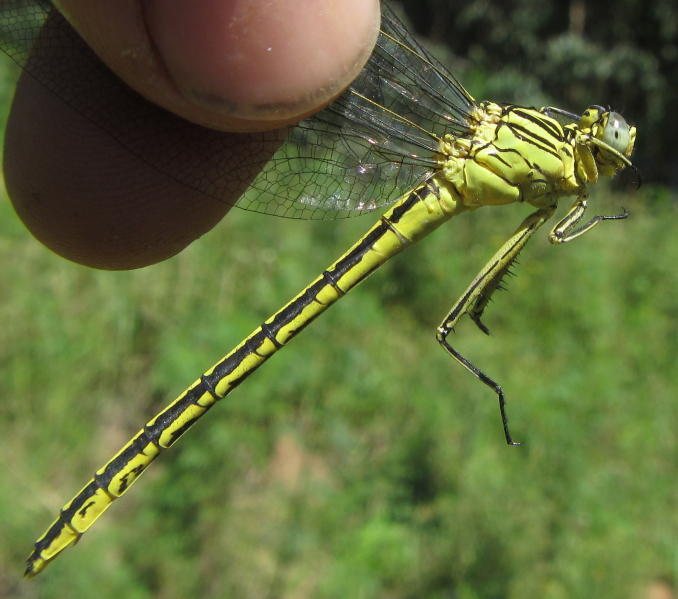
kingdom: Animalia
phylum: Arthropoda
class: Insecta
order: Odonata
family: Gomphidae
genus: Notogomphus
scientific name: Notogomphus praetorius
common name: Southern yellowjack
